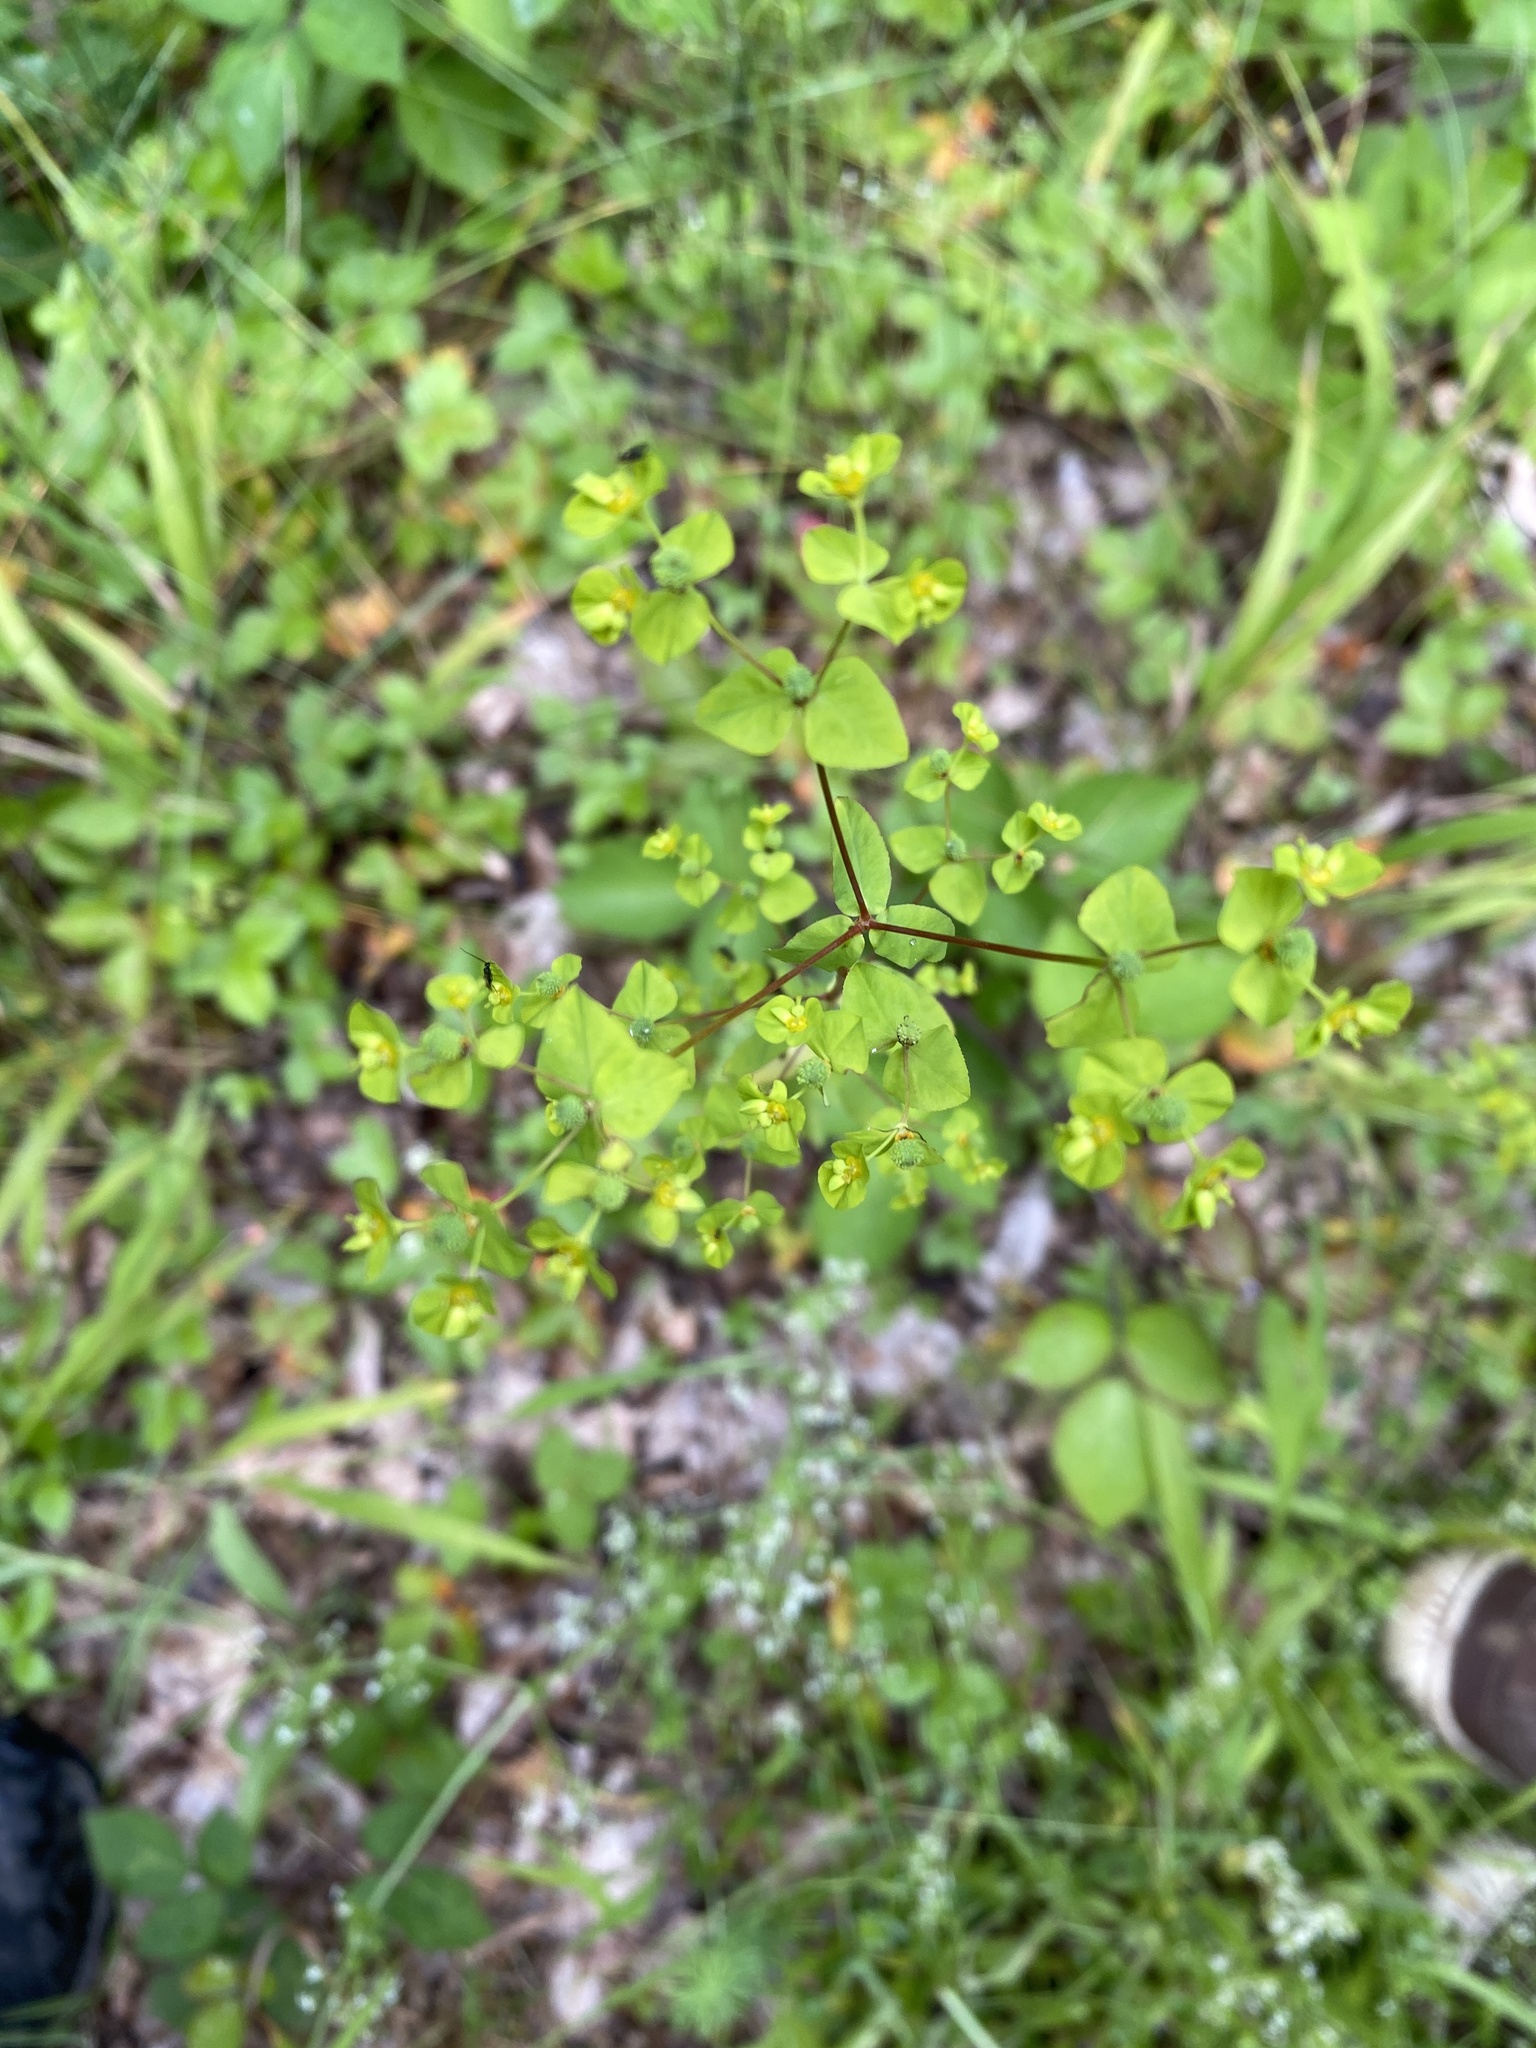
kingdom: Plantae
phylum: Tracheophyta
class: Magnoliopsida
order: Malpighiales
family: Euphorbiaceae
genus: Euphorbia
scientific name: Euphorbia stricta
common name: Upright spurge
